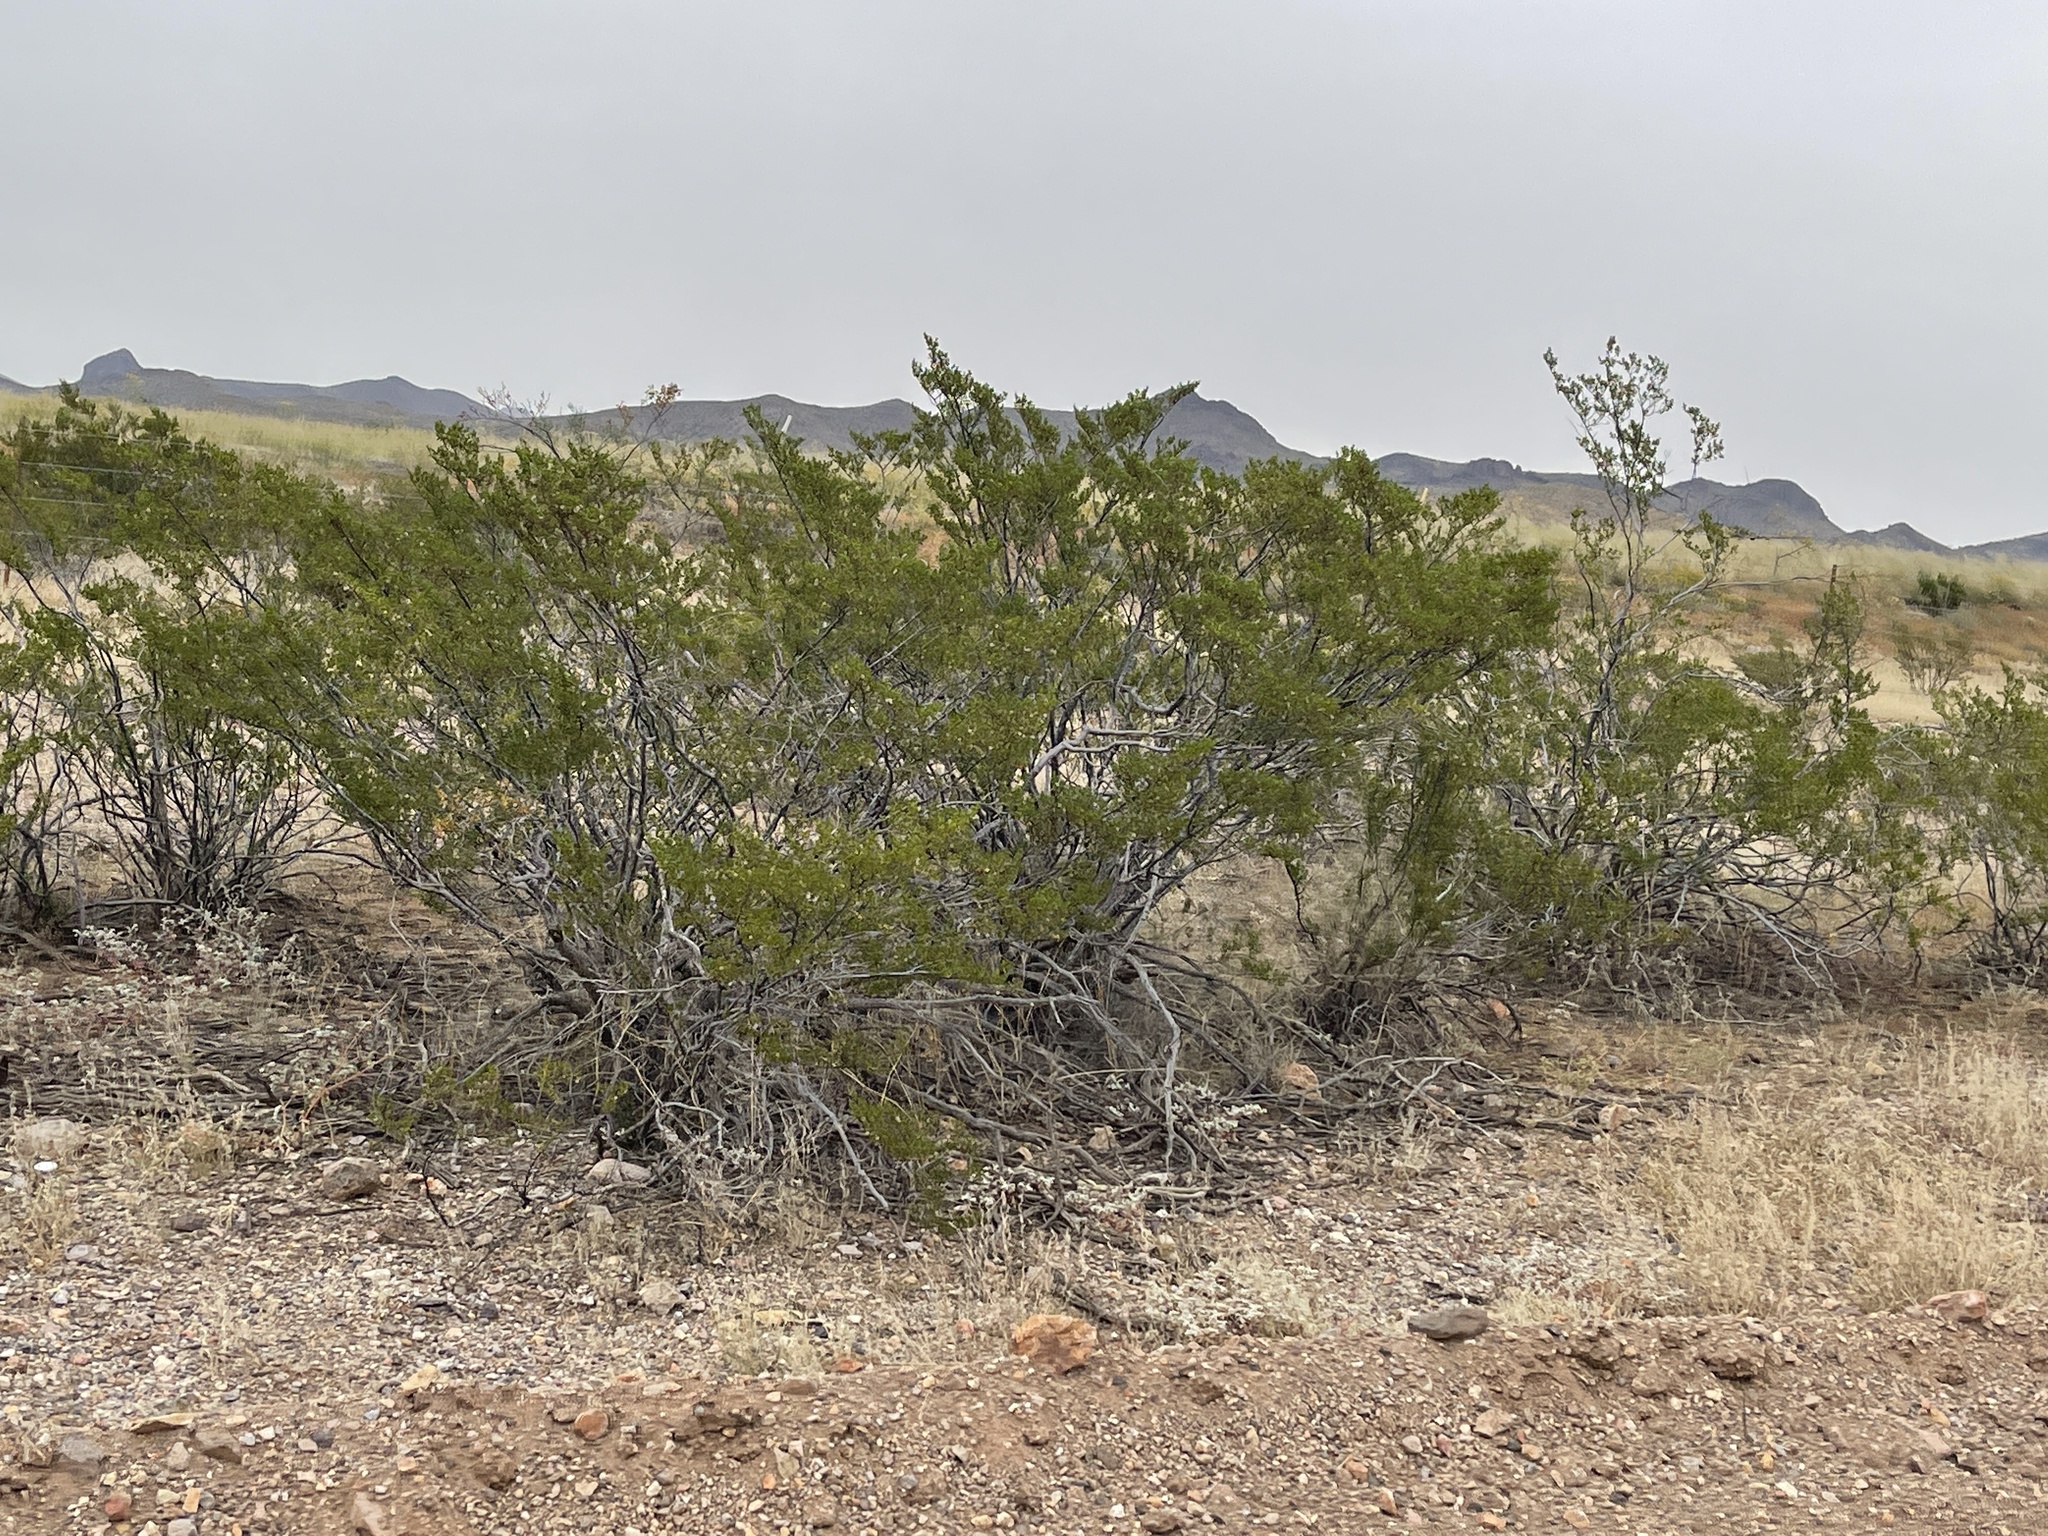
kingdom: Plantae
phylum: Tracheophyta
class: Magnoliopsida
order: Zygophyllales
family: Zygophyllaceae
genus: Larrea
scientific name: Larrea tridentata
